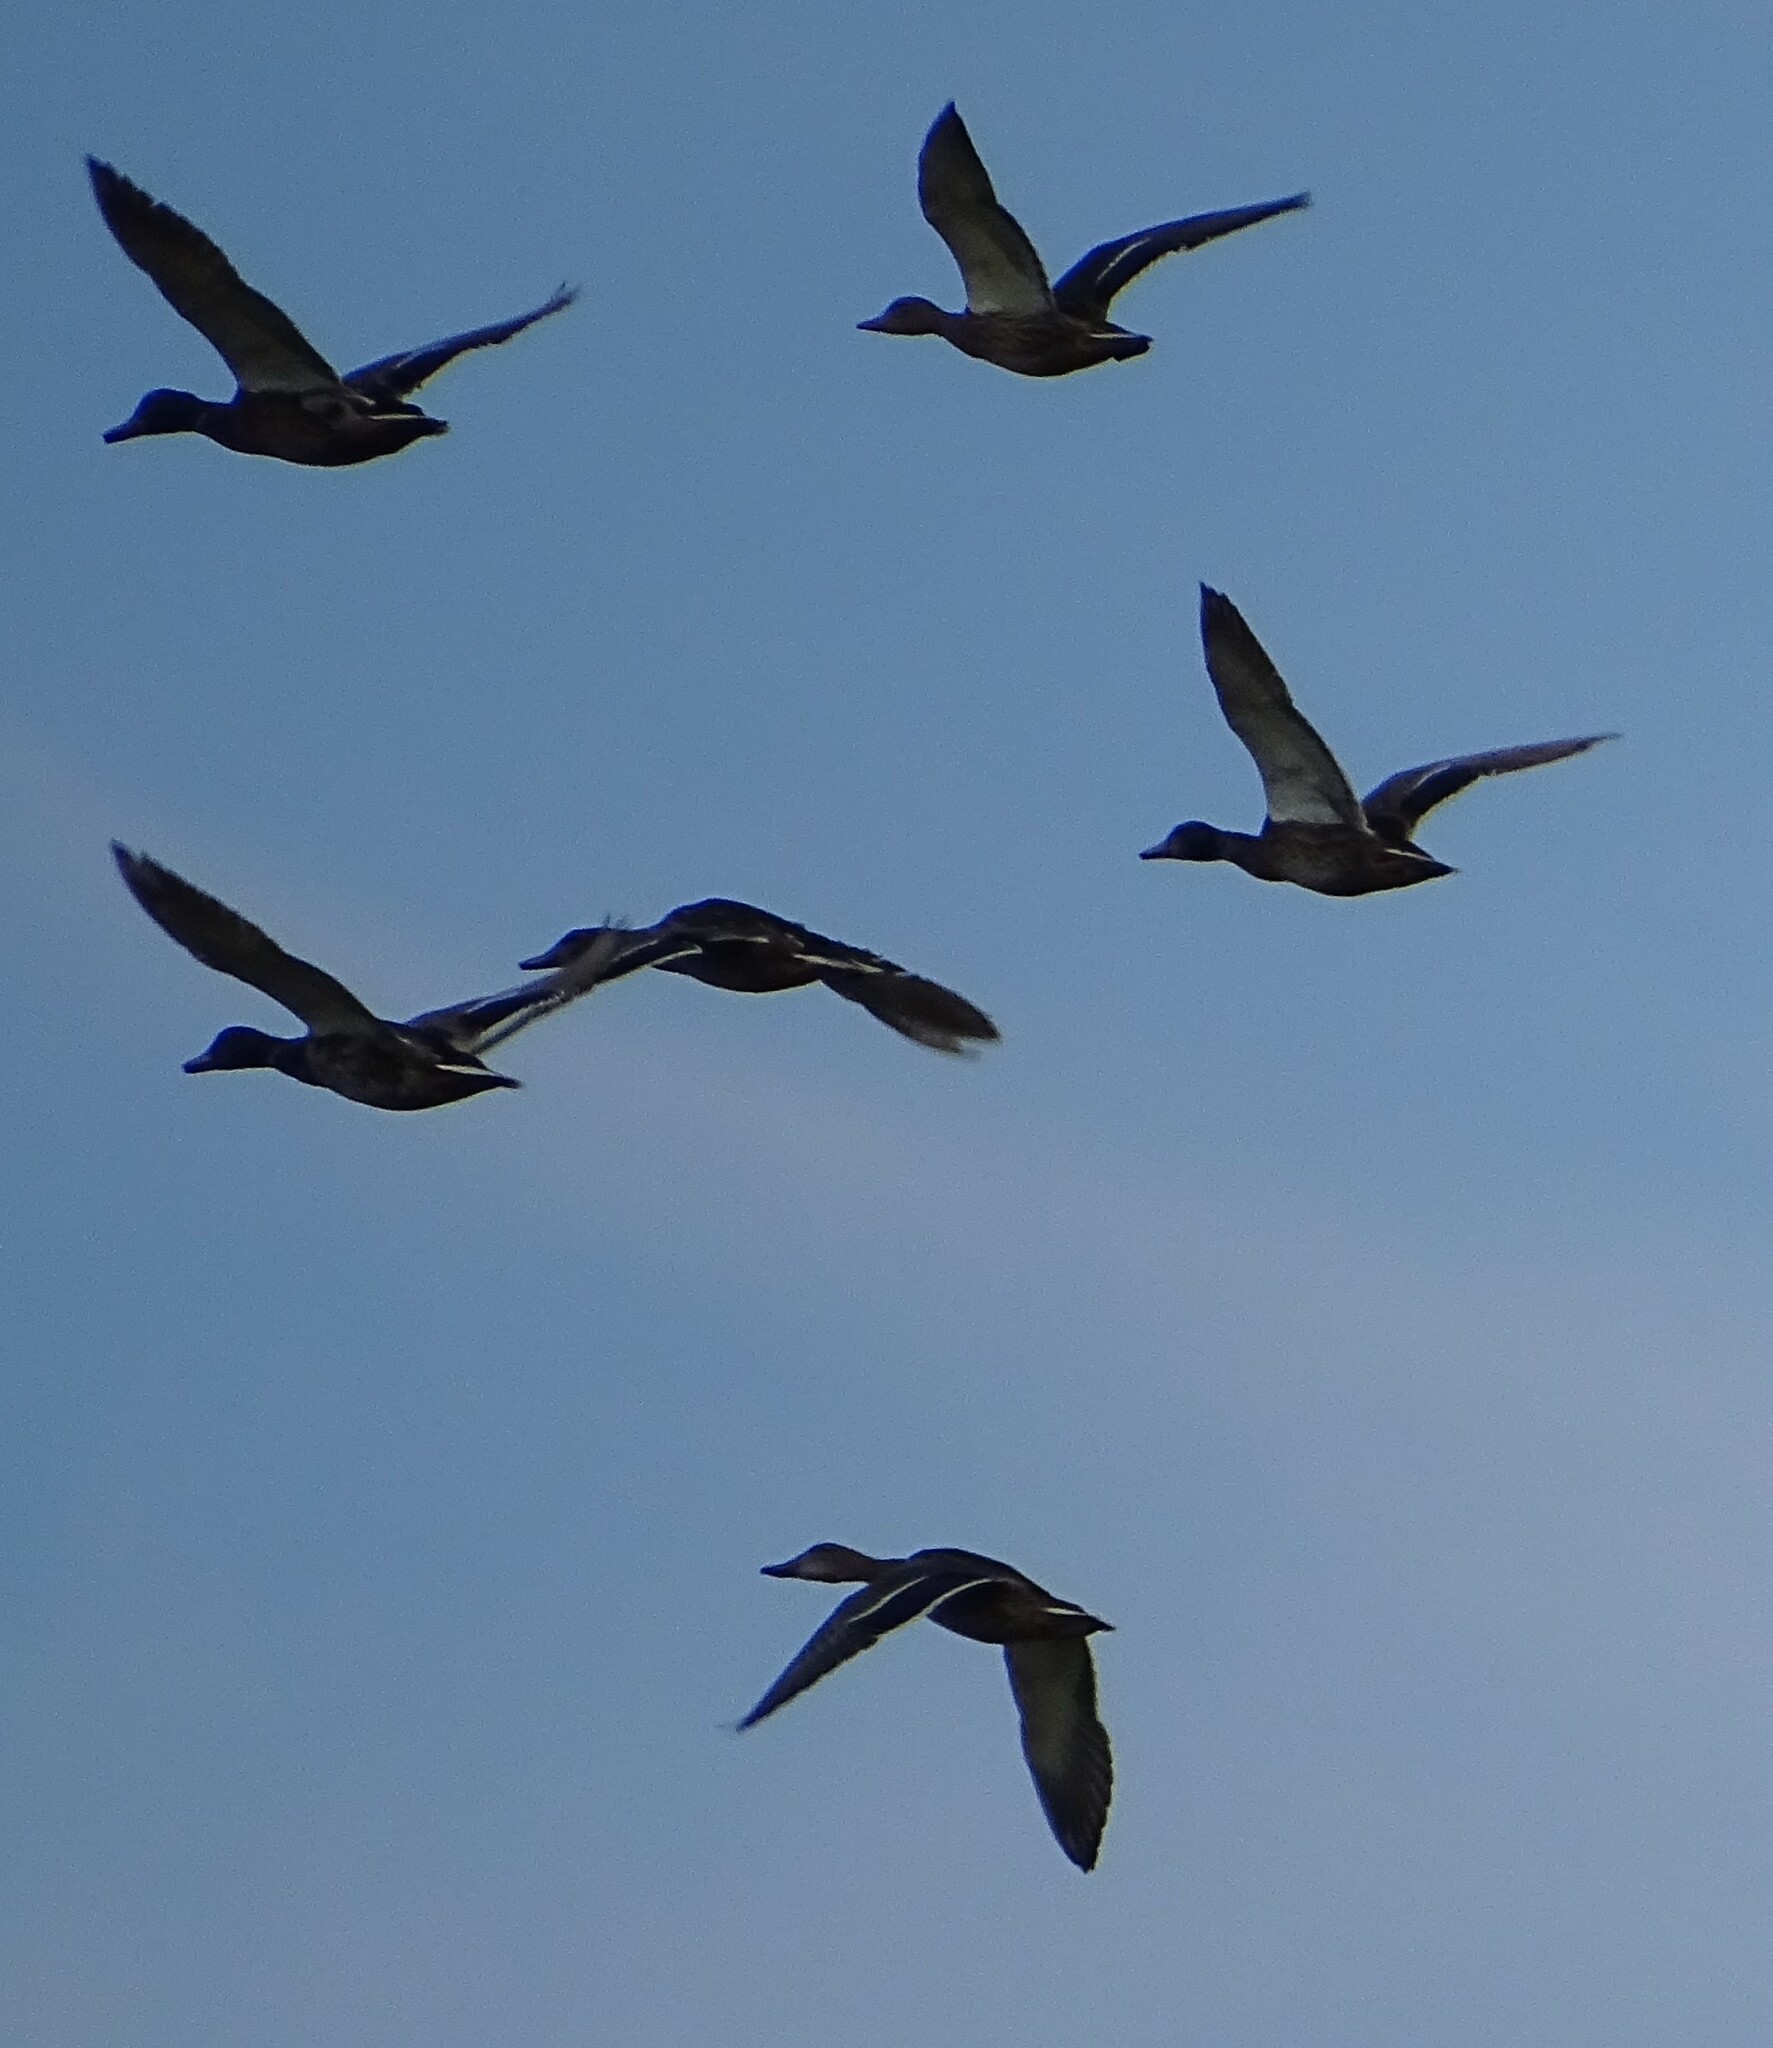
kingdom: Animalia
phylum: Chordata
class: Aves
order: Anseriformes
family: Anatidae
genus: Anas
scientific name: Anas platyrhynchos
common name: Mallard
